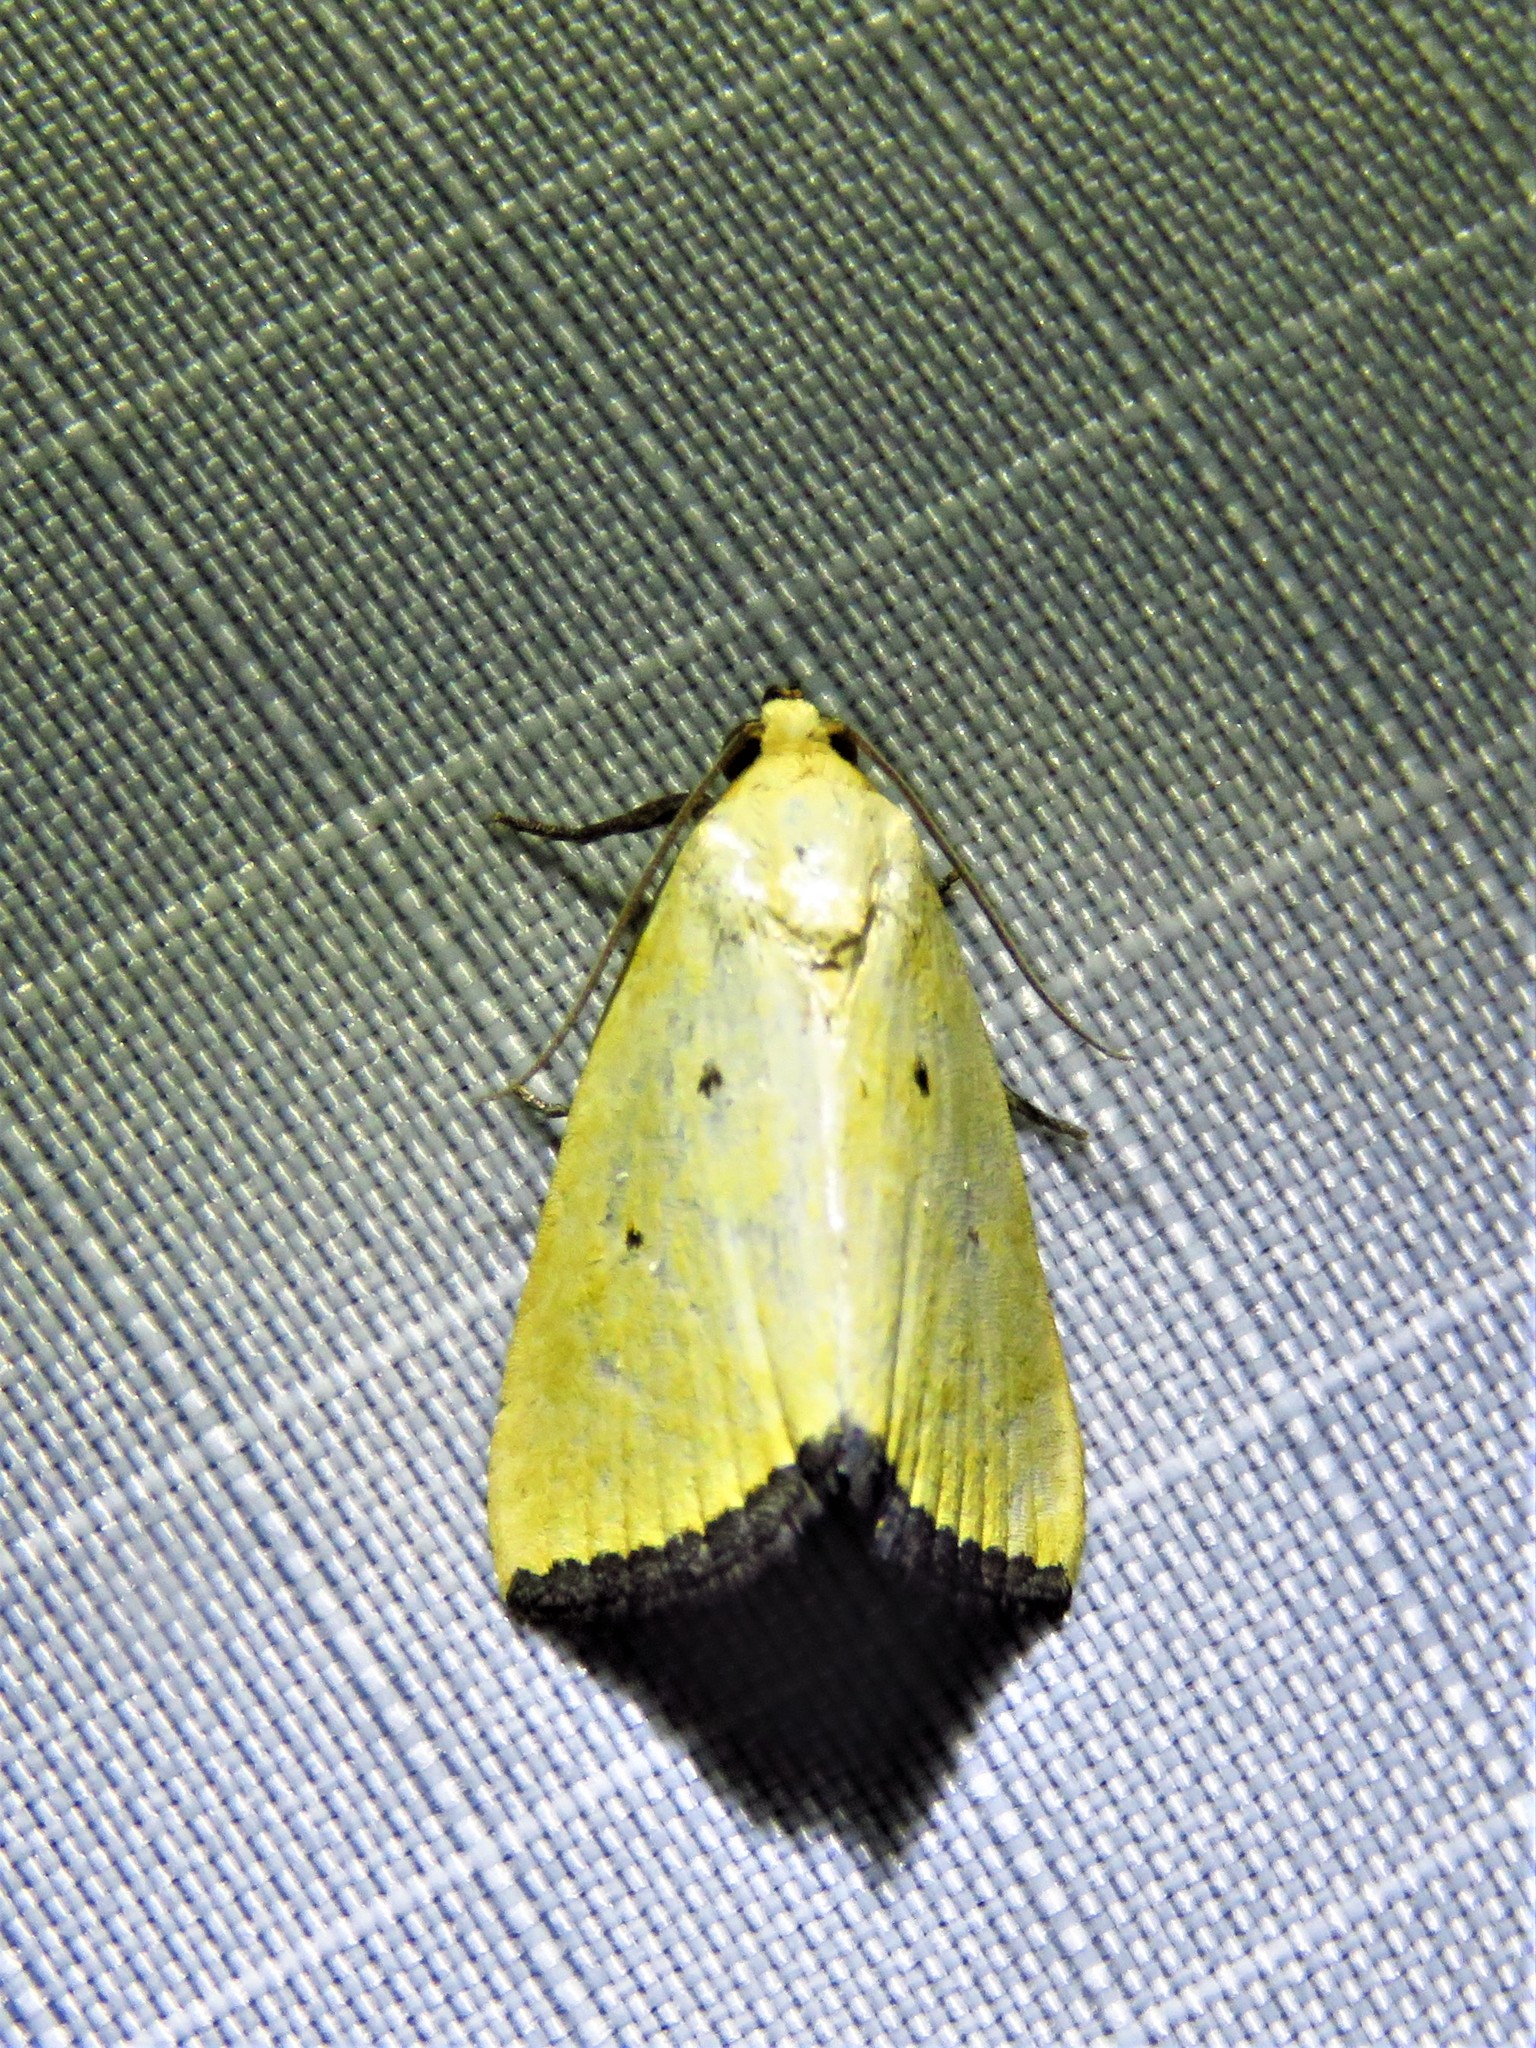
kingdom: Animalia
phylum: Arthropoda
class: Insecta
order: Lepidoptera
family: Noctuidae
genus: Marimatha
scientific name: Marimatha nigrofimbria
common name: Black-bordered lemon moth
